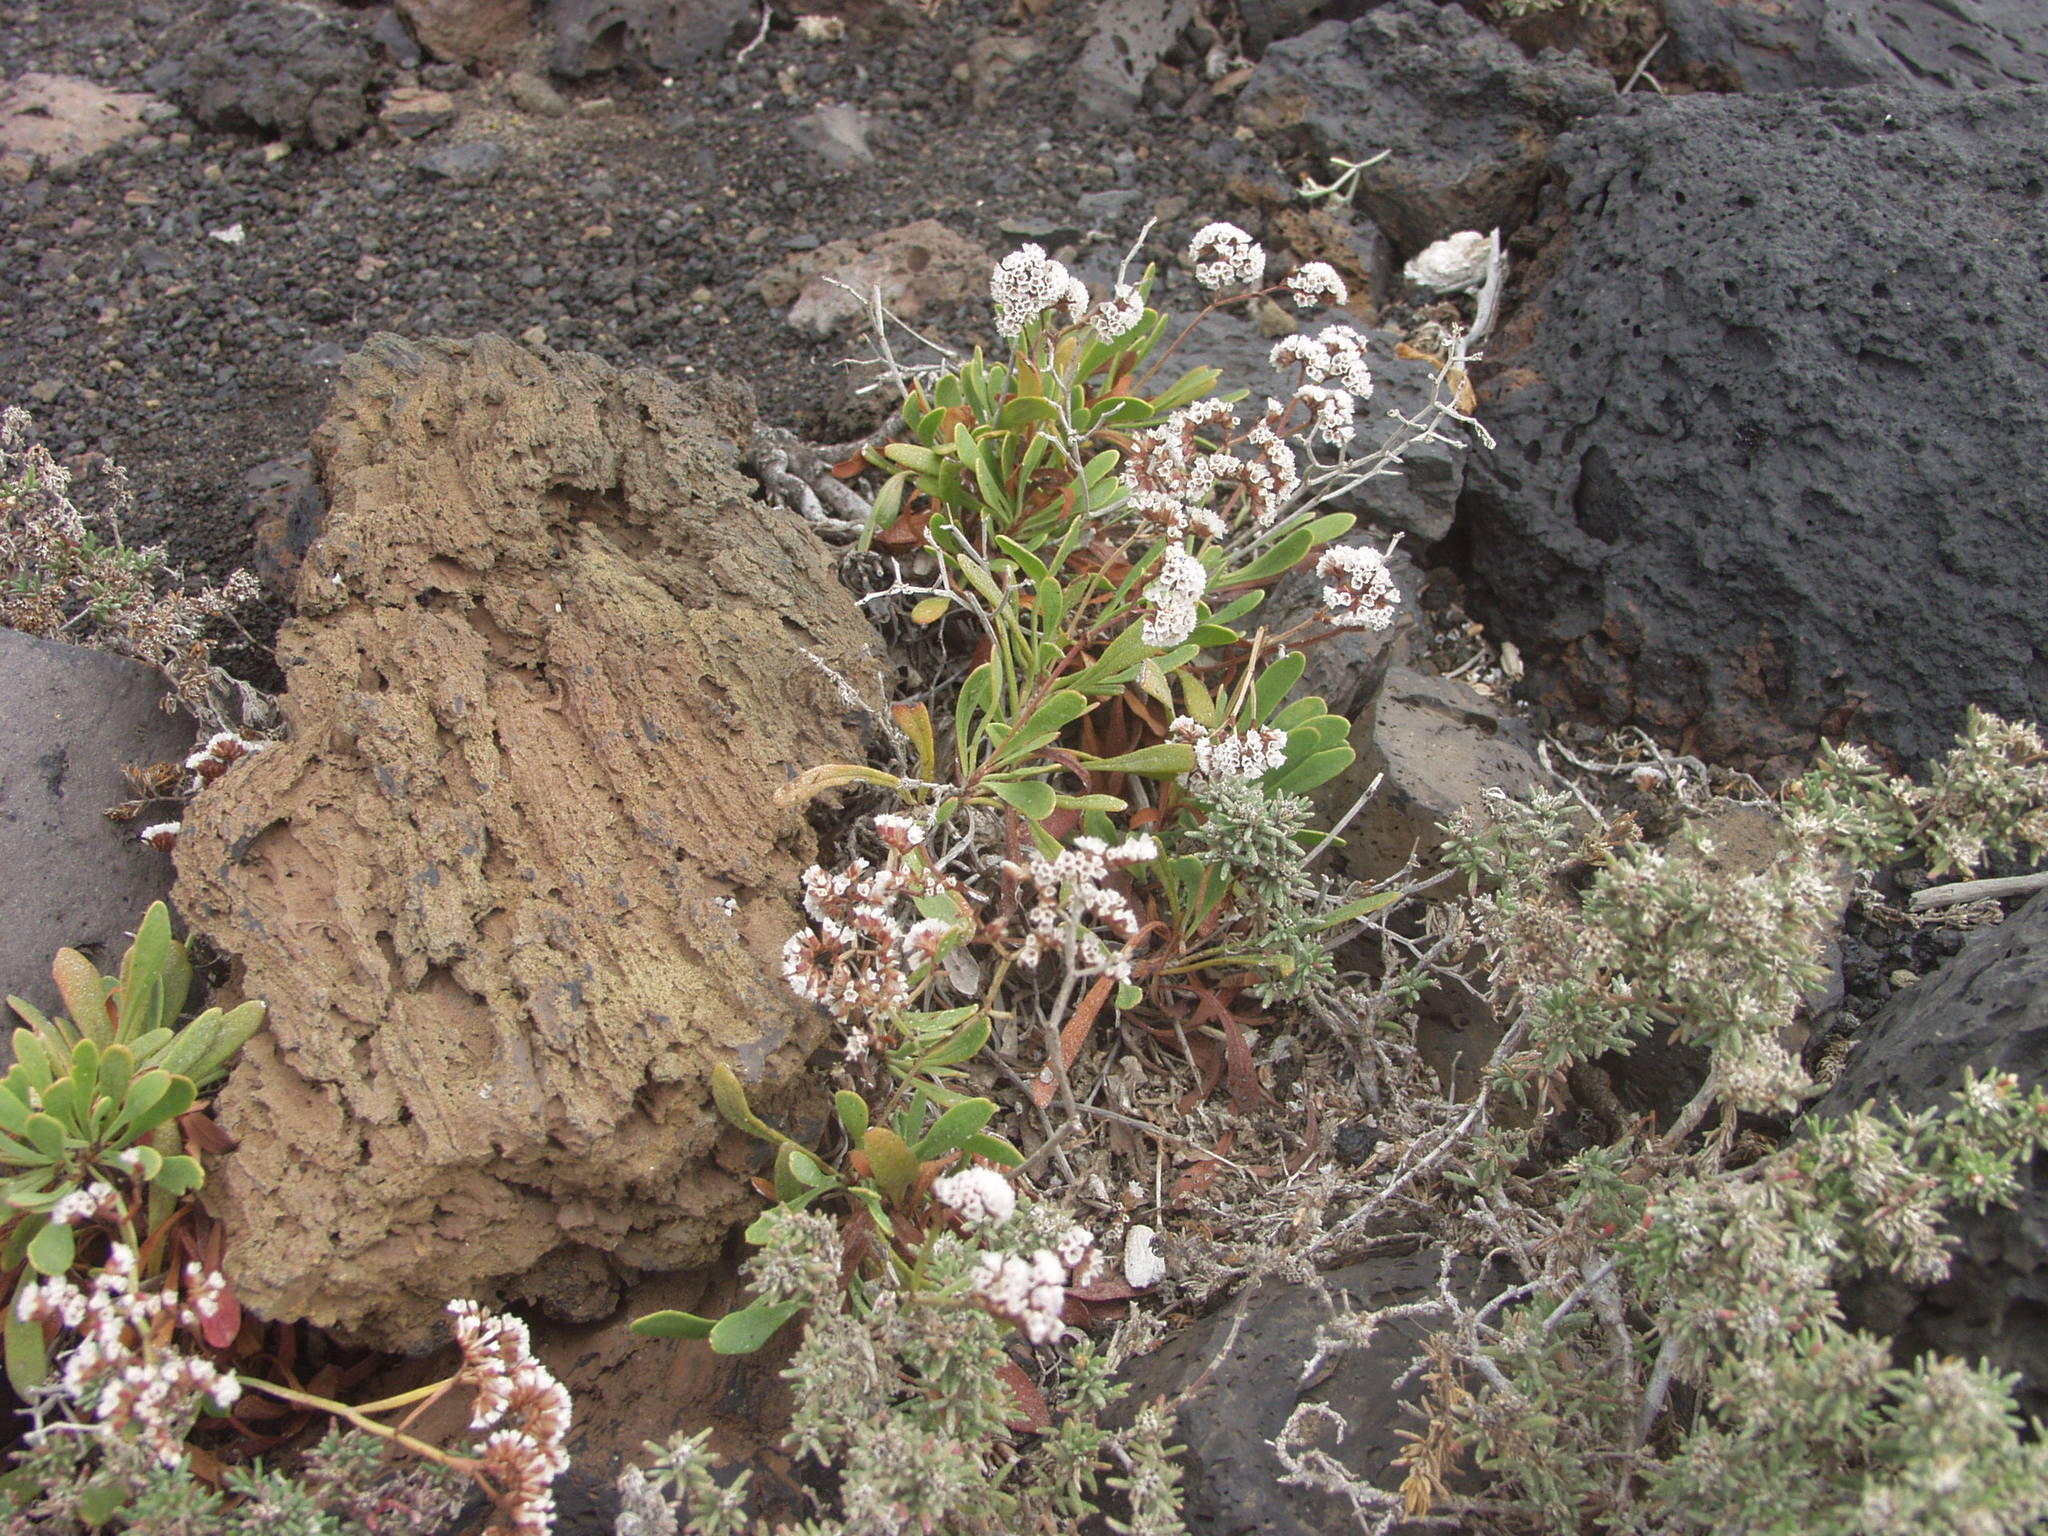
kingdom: Plantae
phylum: Tracheophyta
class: Magnoliopsida
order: Caryophyllales
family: Plumbaginaceae
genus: Limonium
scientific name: Limonium pectinatum
